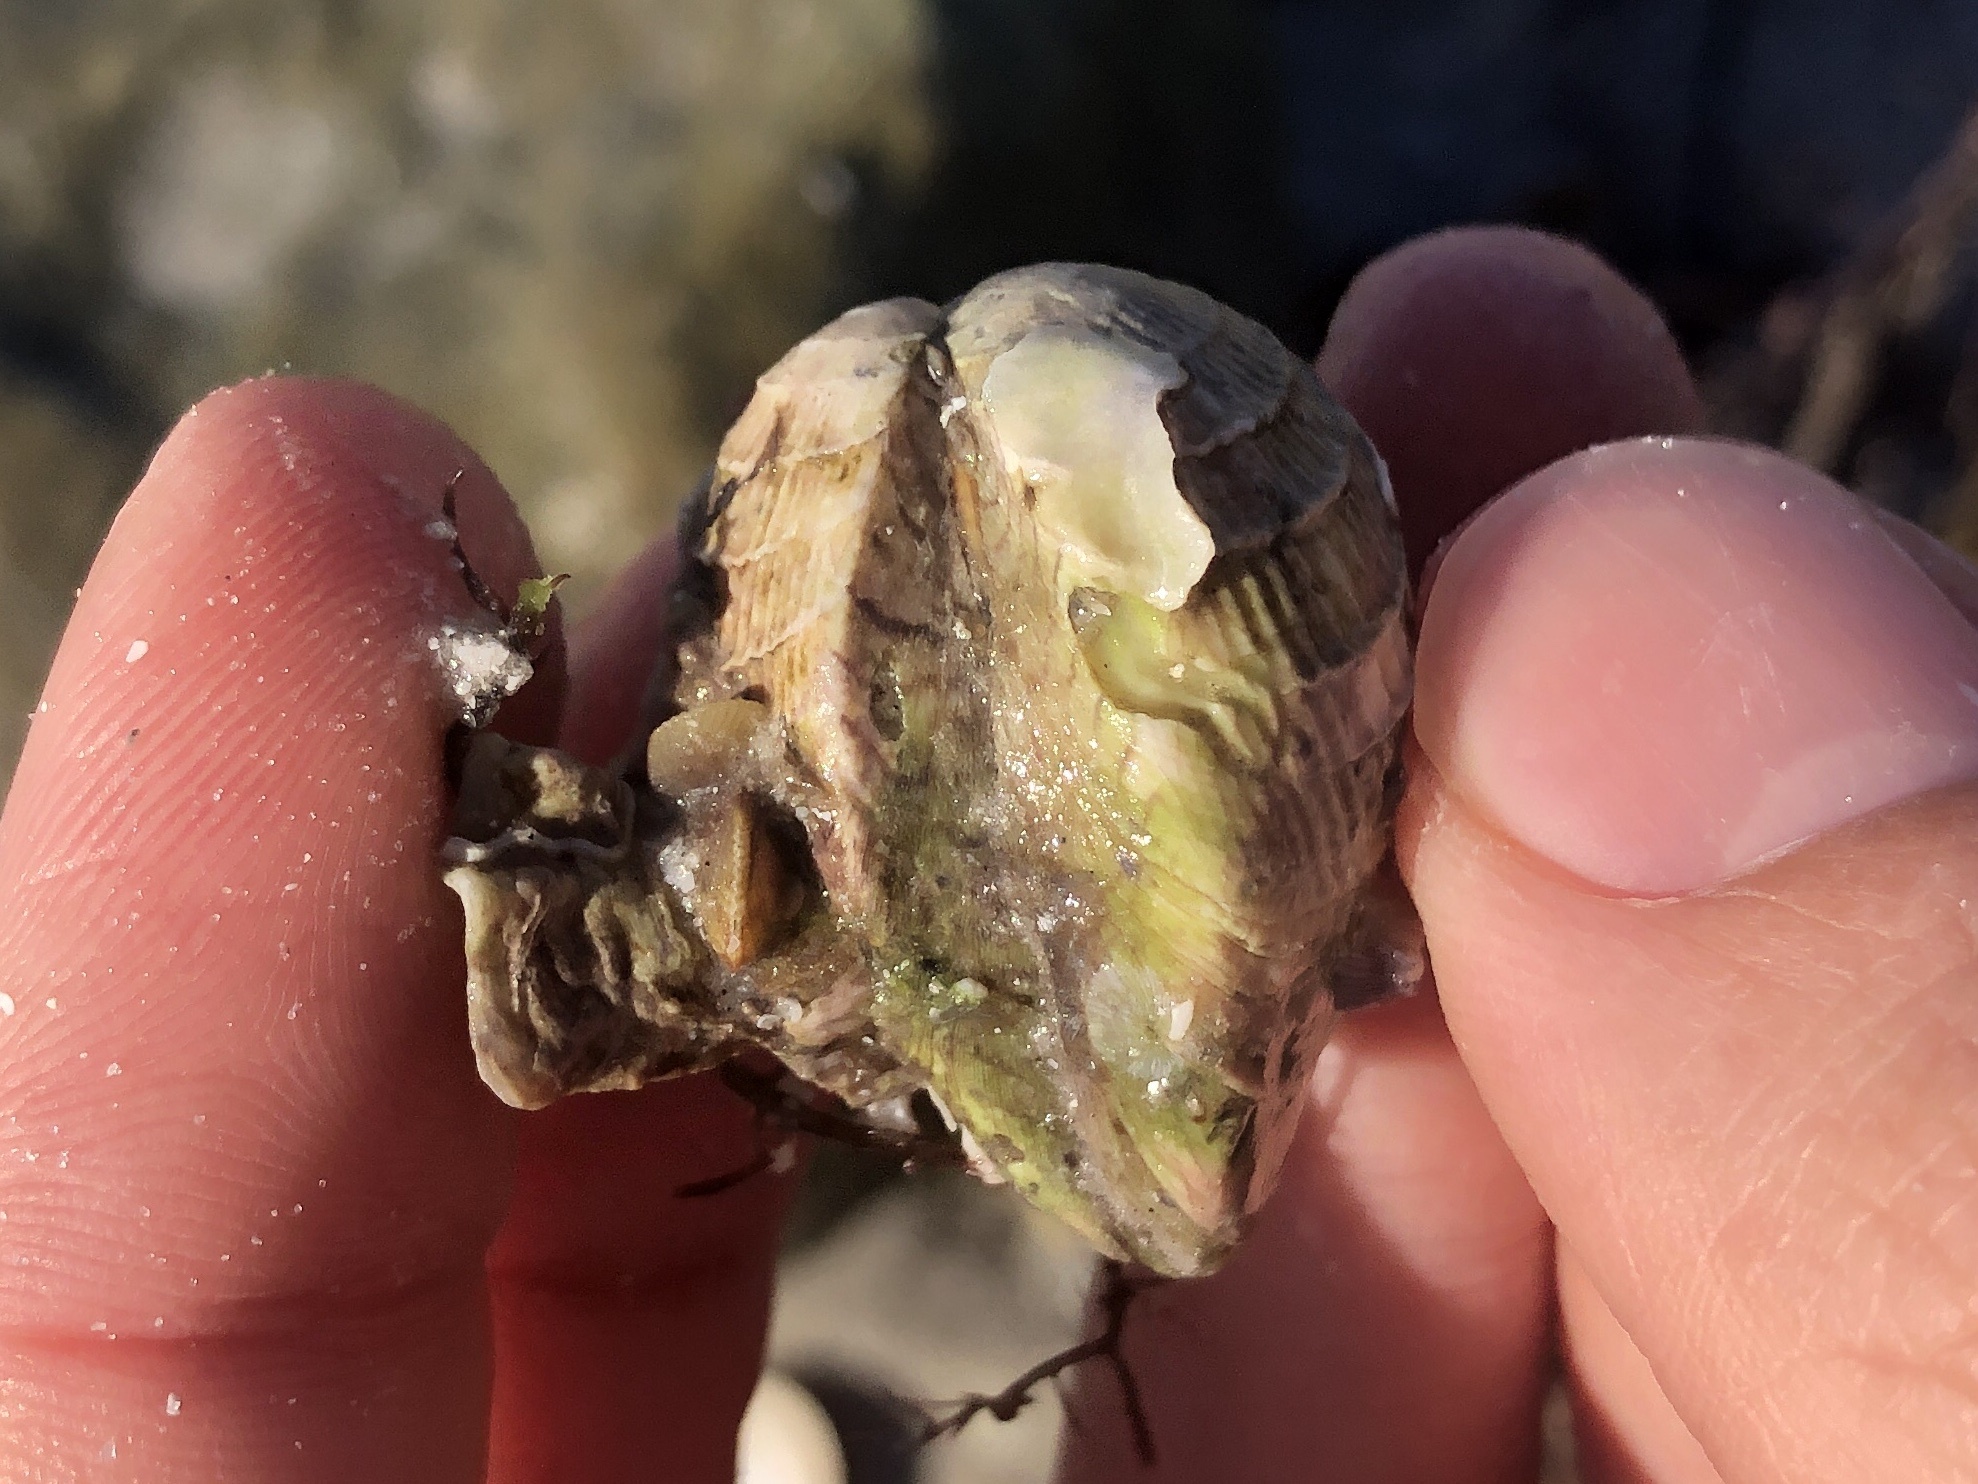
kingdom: Animalia
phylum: Mollusca
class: Bivalvia
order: Venerida
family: Veneridae
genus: Chione
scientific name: Chione elevata
